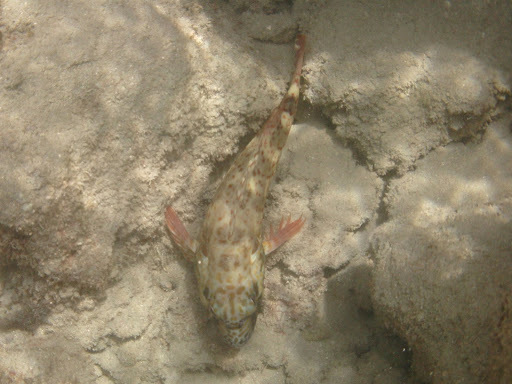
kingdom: Animalia
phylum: Chordata
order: Perciformes
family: Cirrhitidae
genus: Cirrhitus
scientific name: Cirrhitus pinnulatus
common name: Stocky hawkfish
